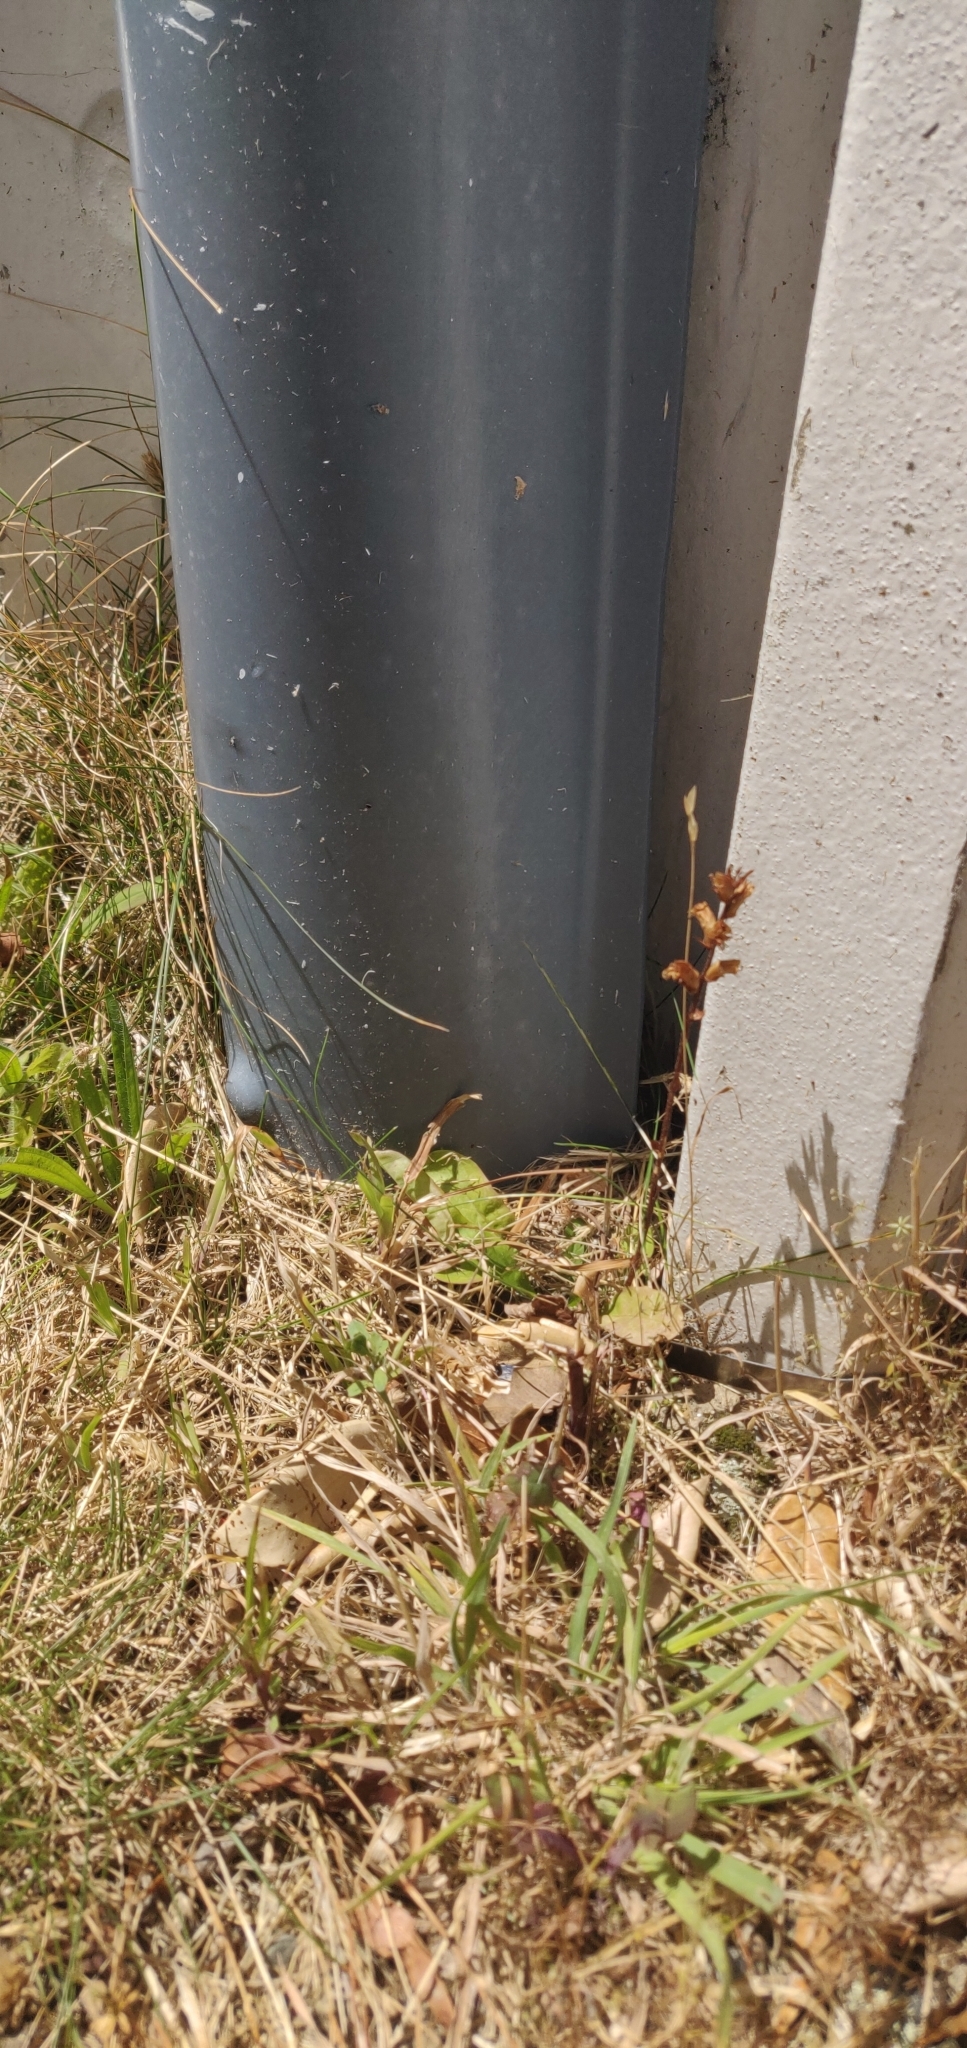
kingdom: Plantae
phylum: Tracheophyta
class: Magnoliopsida
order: Lamiales
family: Orobanchaceae
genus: Orobanche
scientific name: Orobanche minor
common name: Common broomrape
